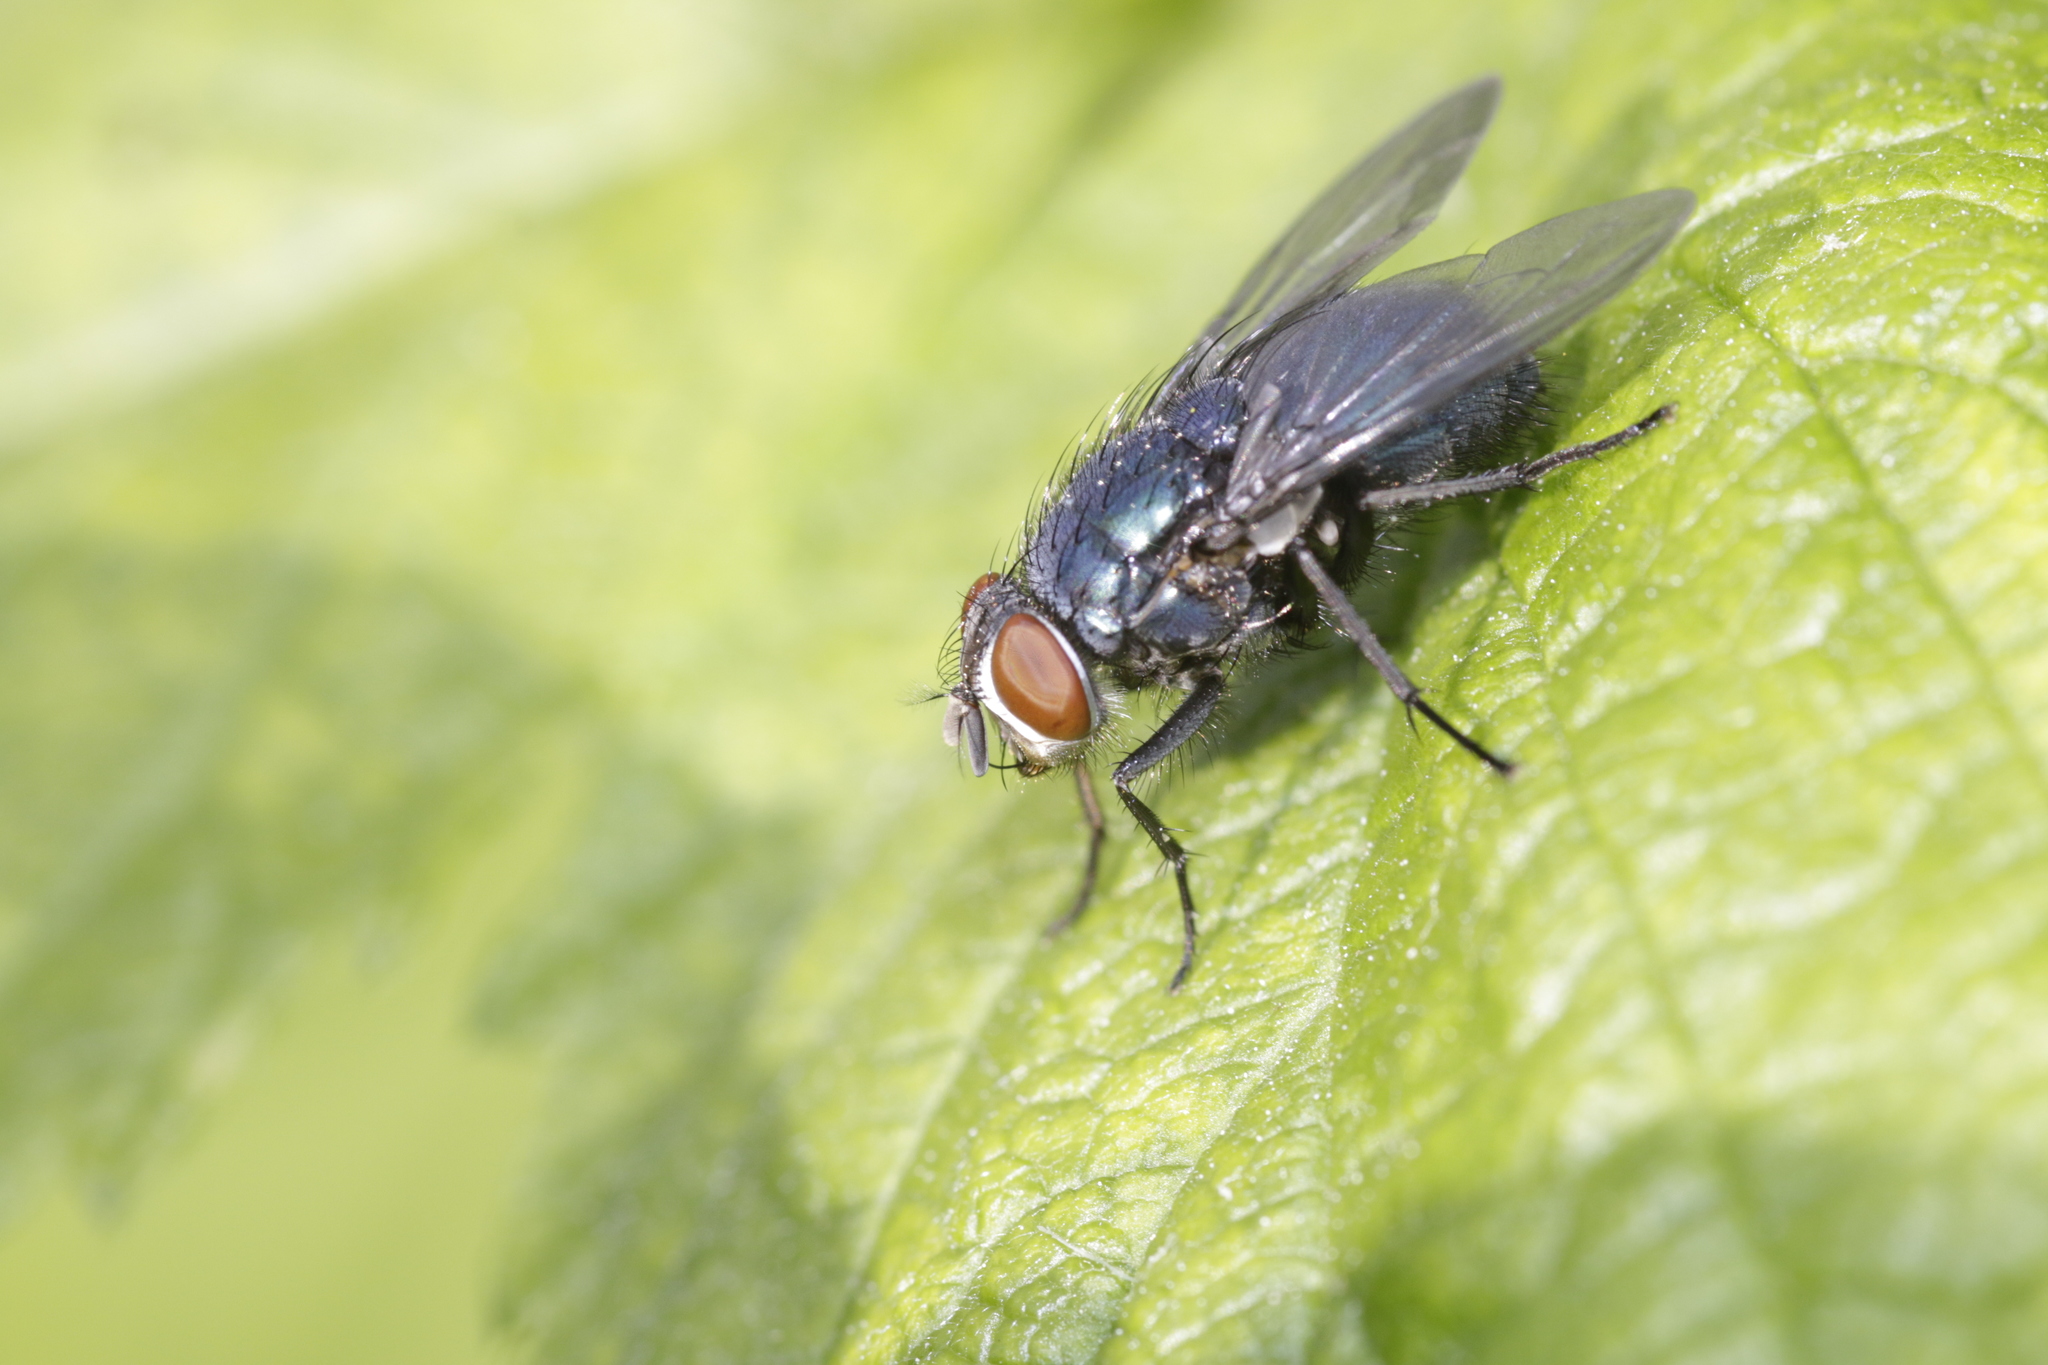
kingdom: Animalia
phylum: Arthropoda
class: Insecta
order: Diptera
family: Calliphoridae
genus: Calliphora
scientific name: Calliphora vicina
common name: Common blow flie
